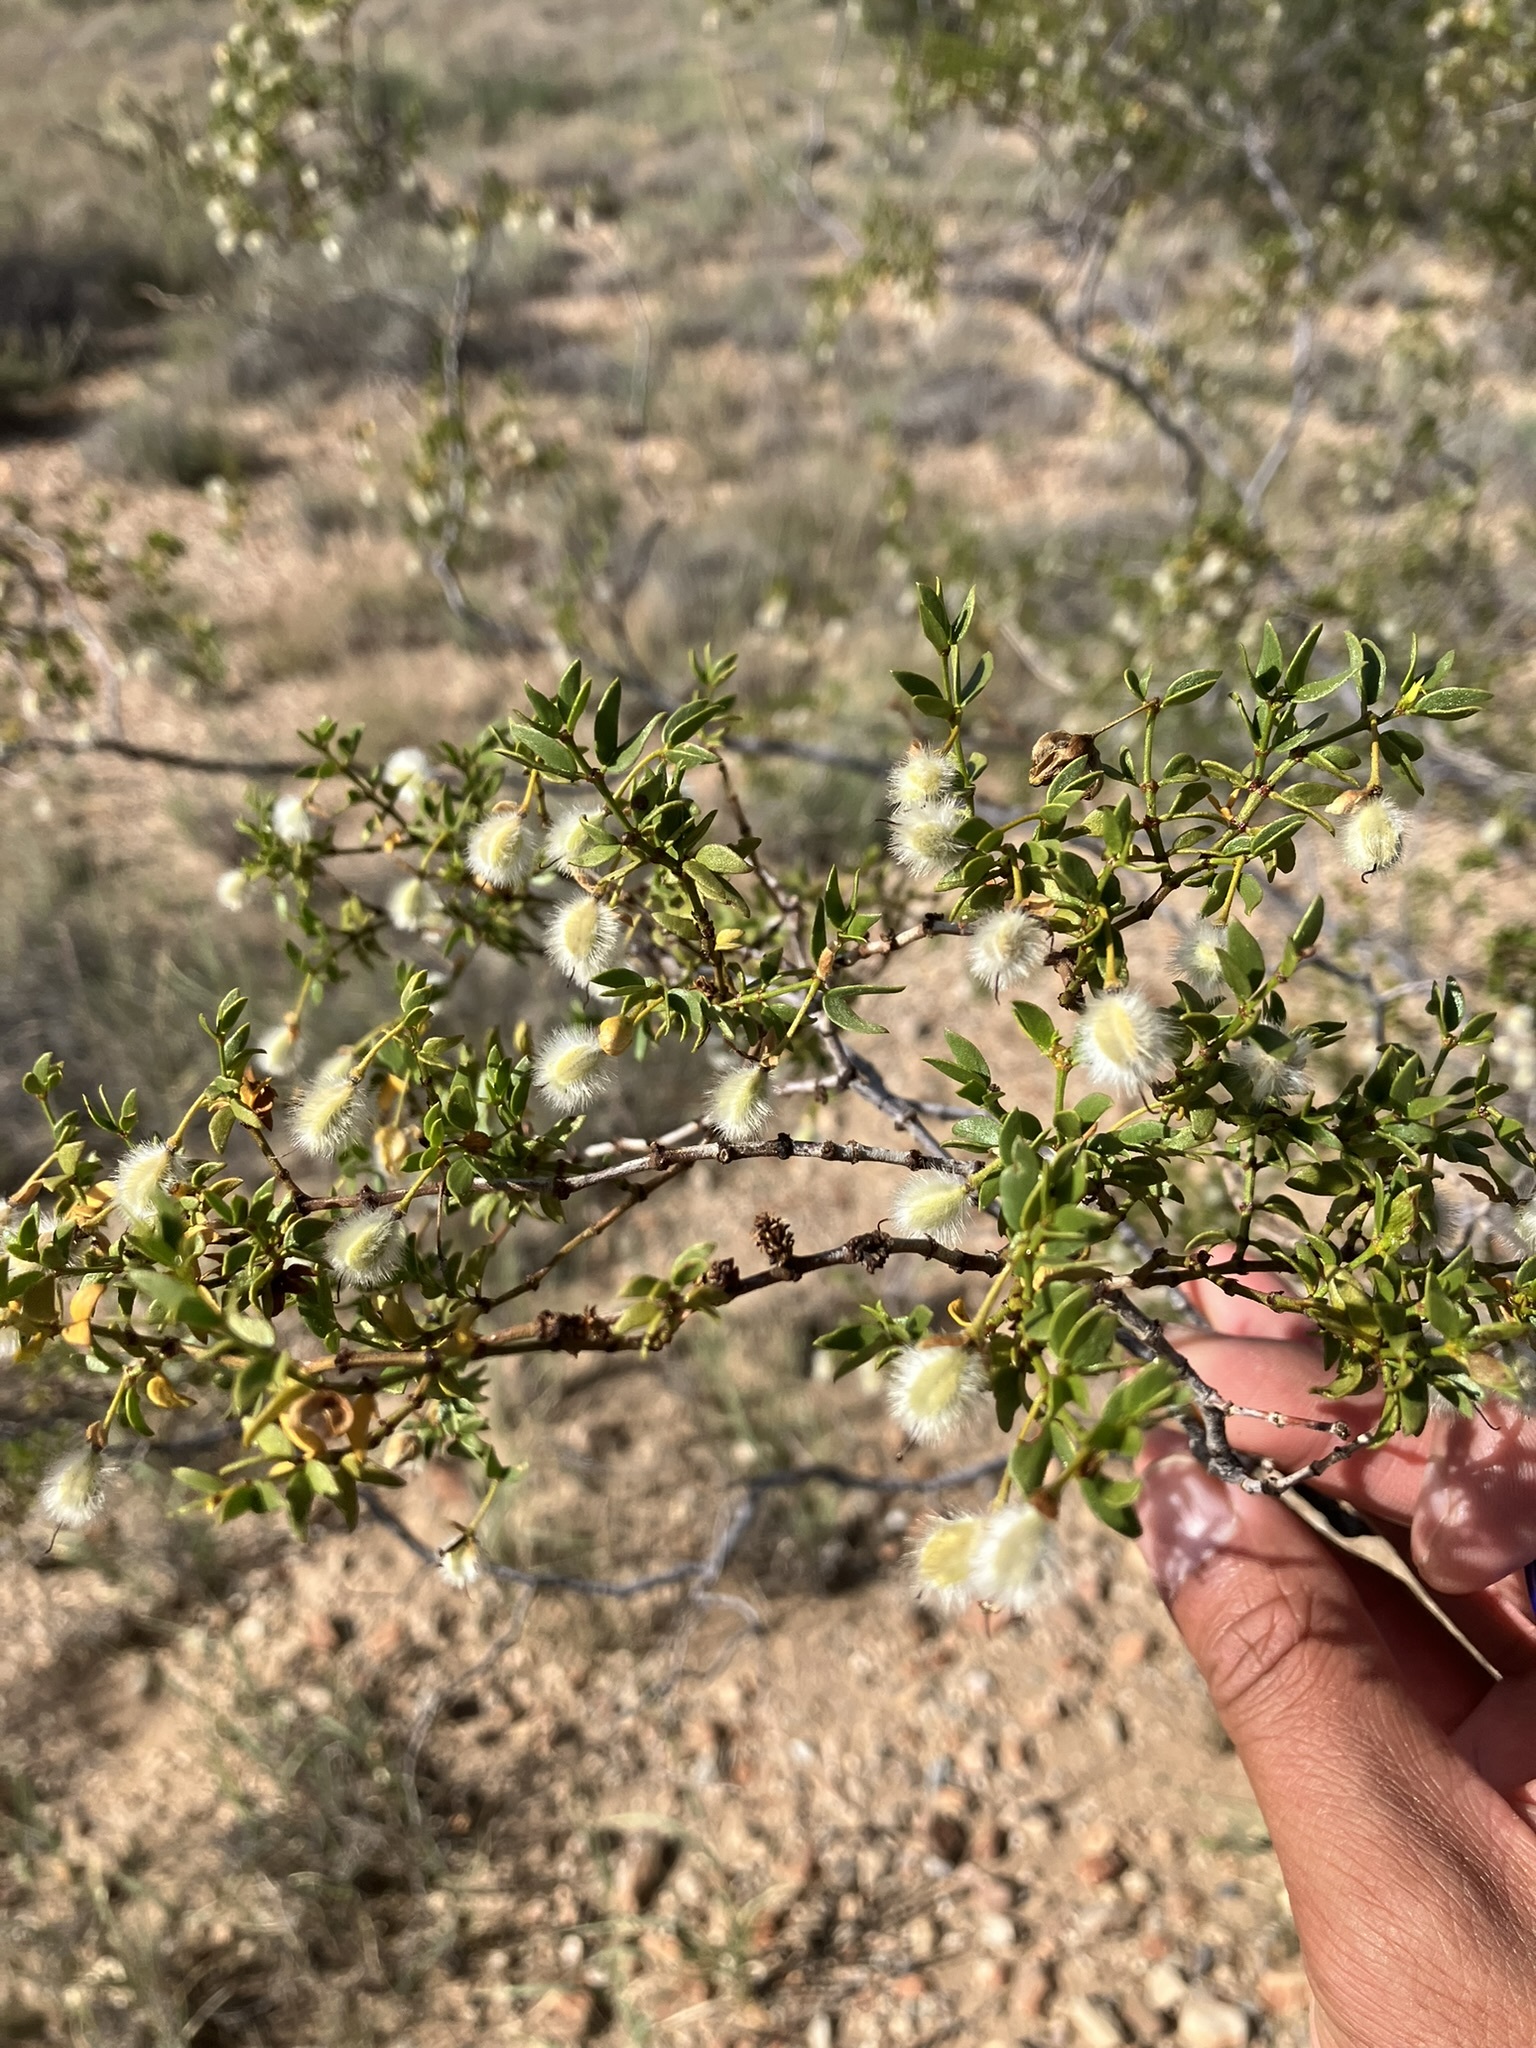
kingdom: Plantae
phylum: Tracheophyta
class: Magnoliopsida
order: Zygophyllales
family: Zygophyllaceae
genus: Larrea
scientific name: Larrea tridentata
